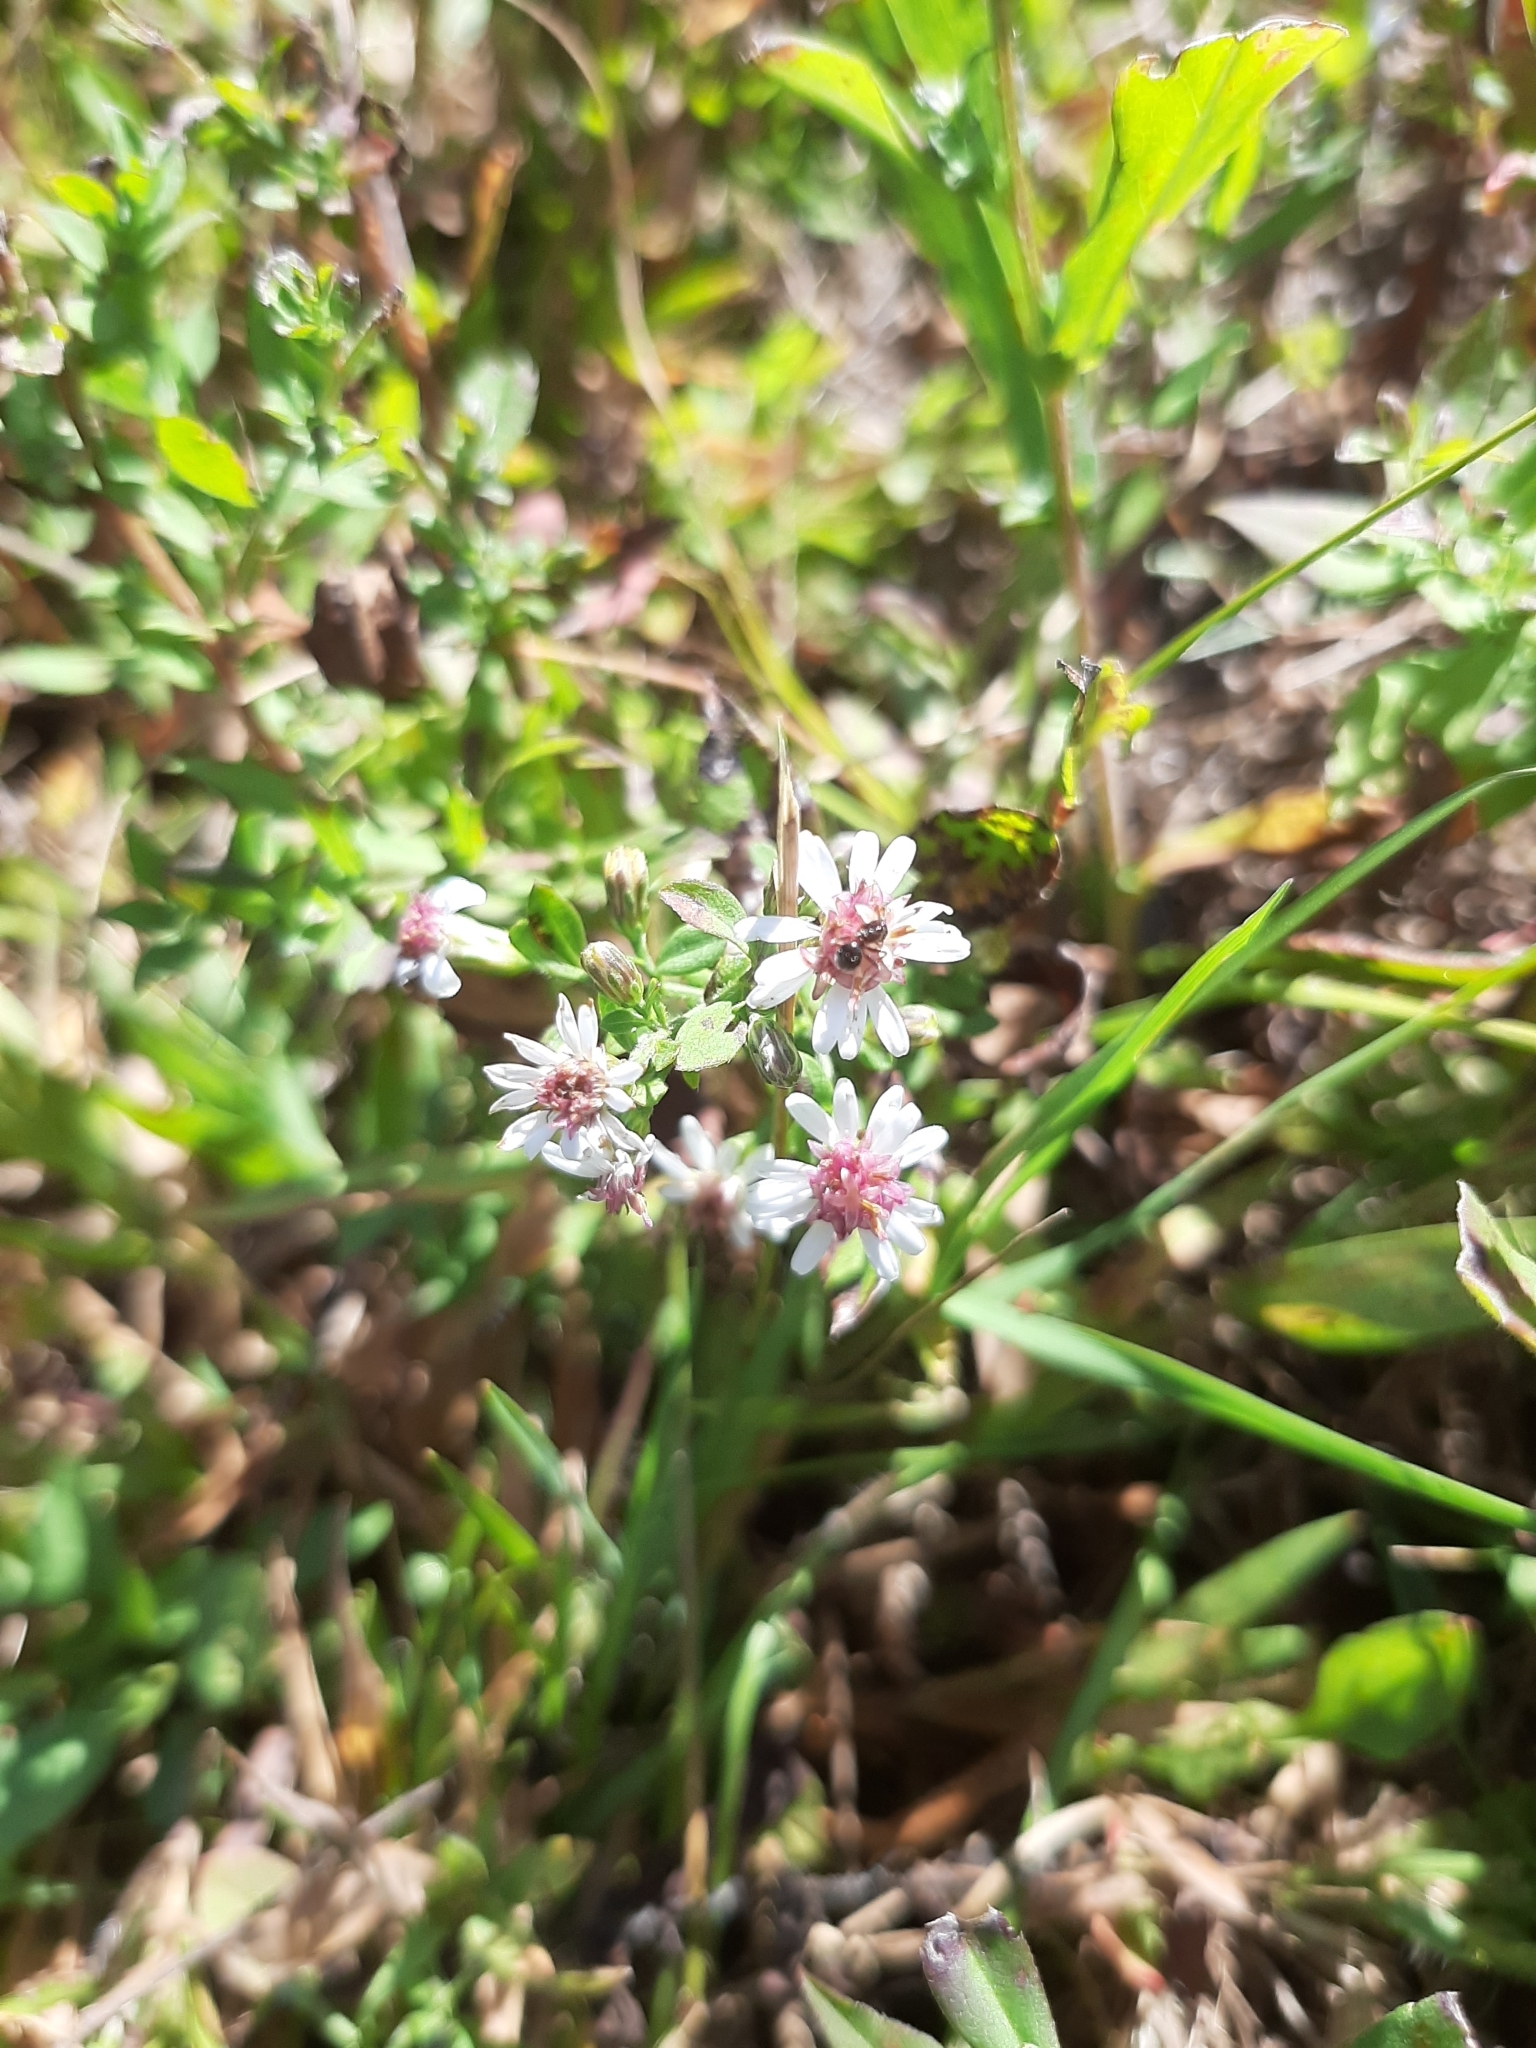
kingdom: Plantae
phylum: Tracheophyta
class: Magnoliopsida
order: Asterales
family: Asteraceae
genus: Symphyotrichum
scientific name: Symphyotrichum lateriflorum
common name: Calico aster
